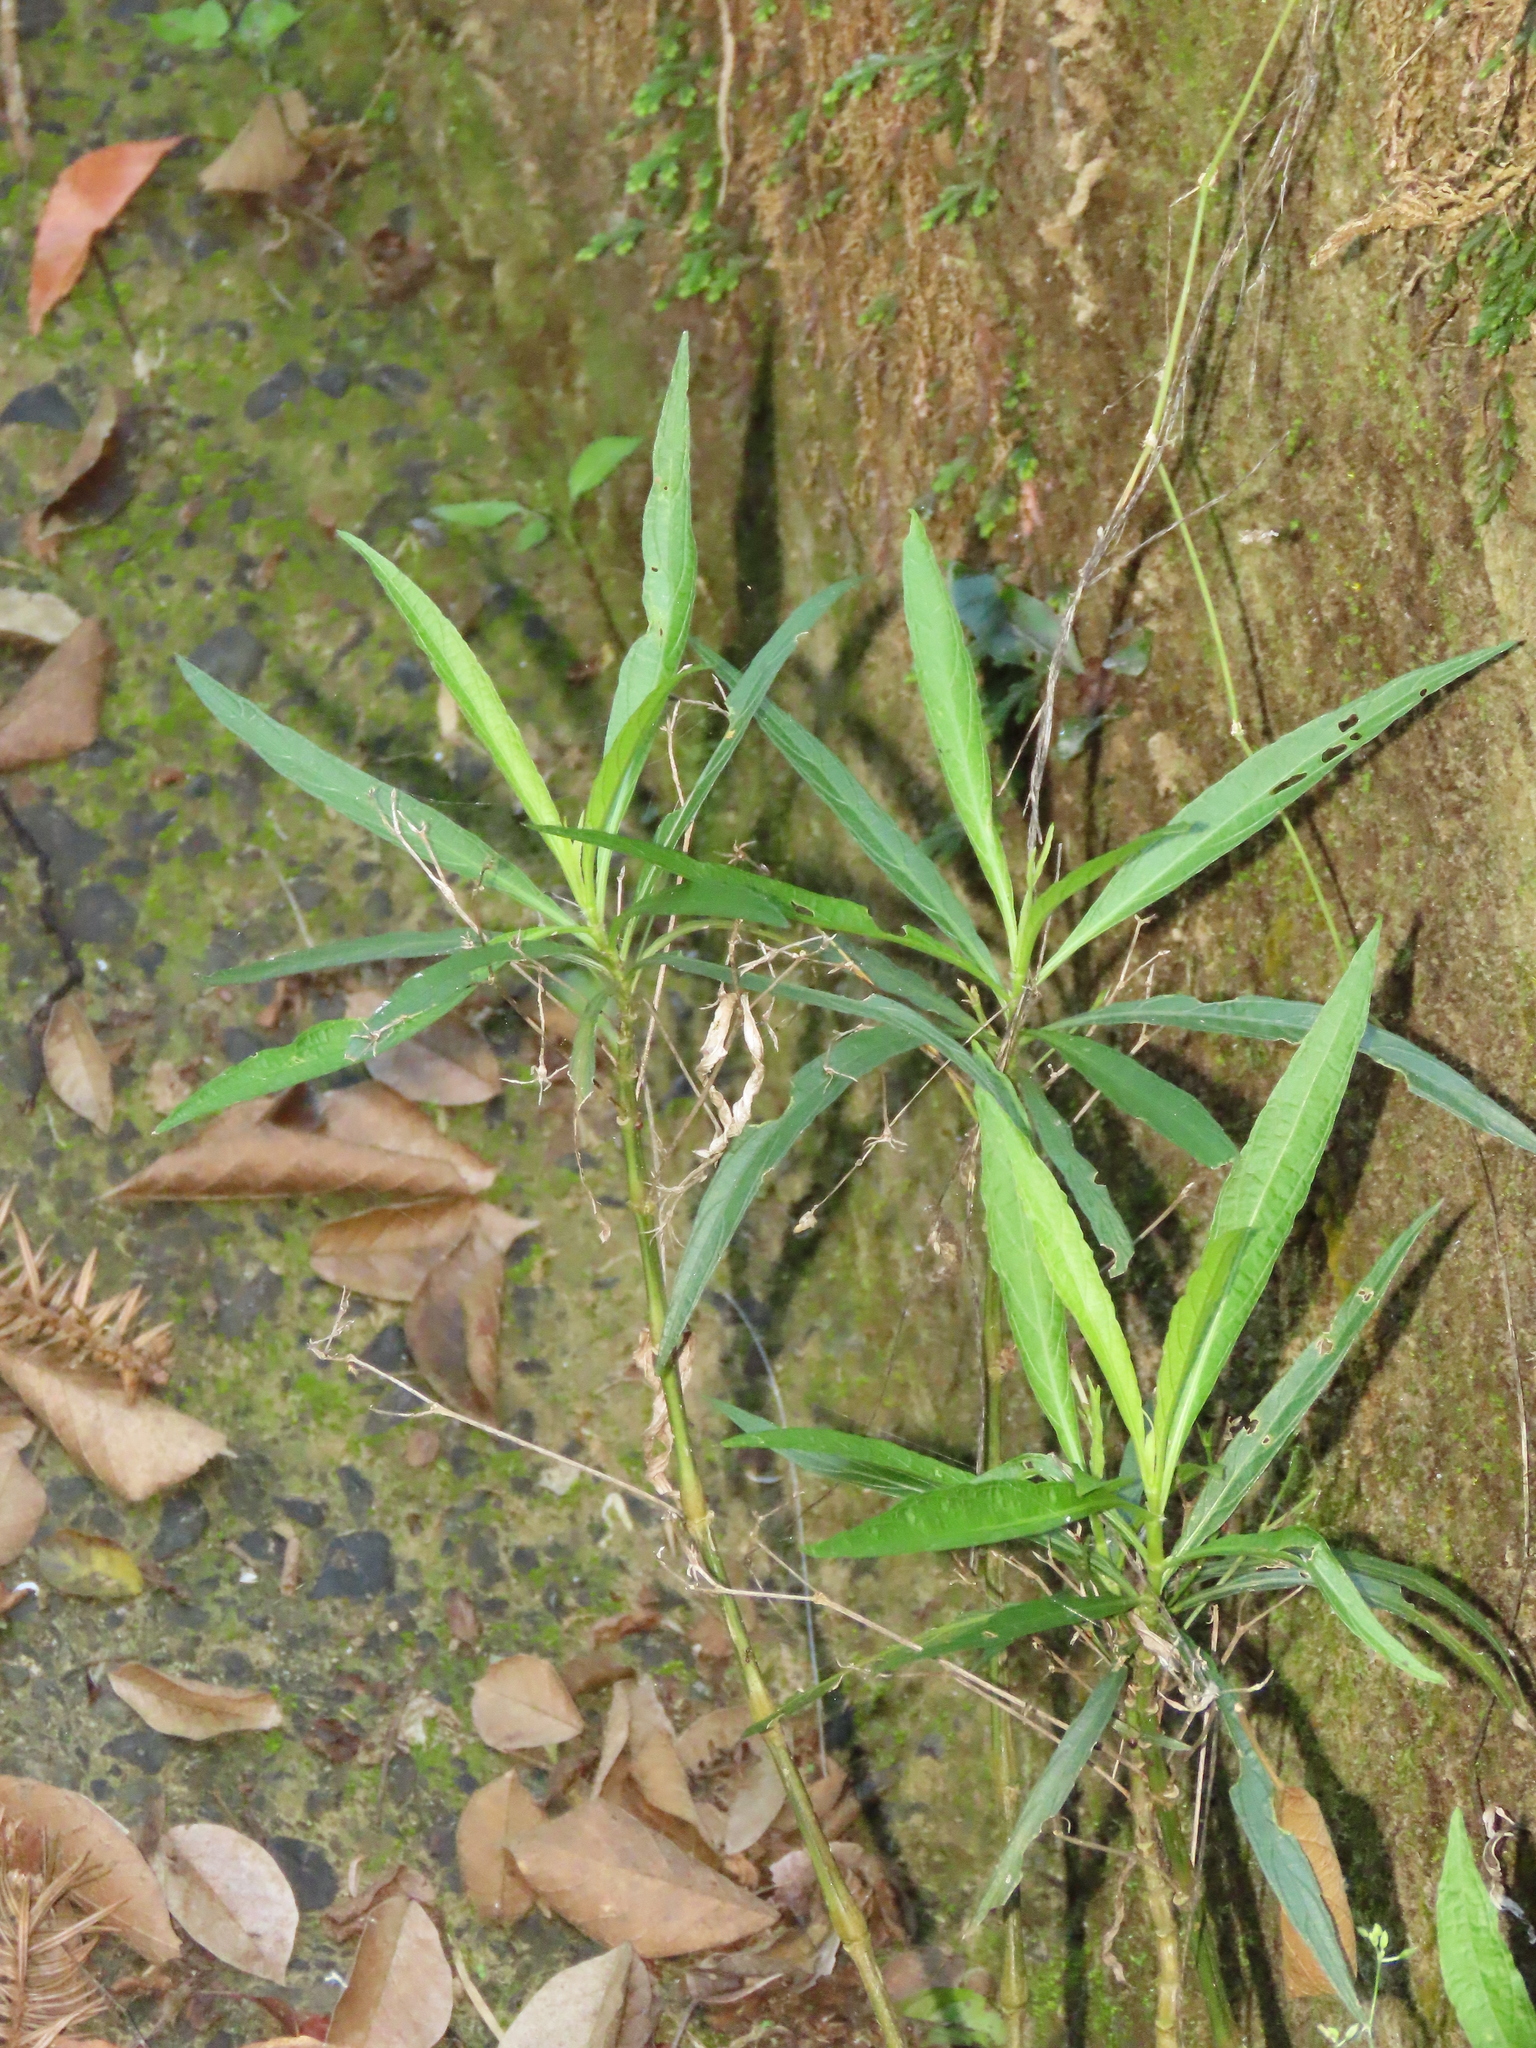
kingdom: Plantae
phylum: Tracheophyta
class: Magnoliopsida
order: Lamiales
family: Acanthaceae
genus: Ruellia
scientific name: Ruellia simplex
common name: Softseed wild petunia
